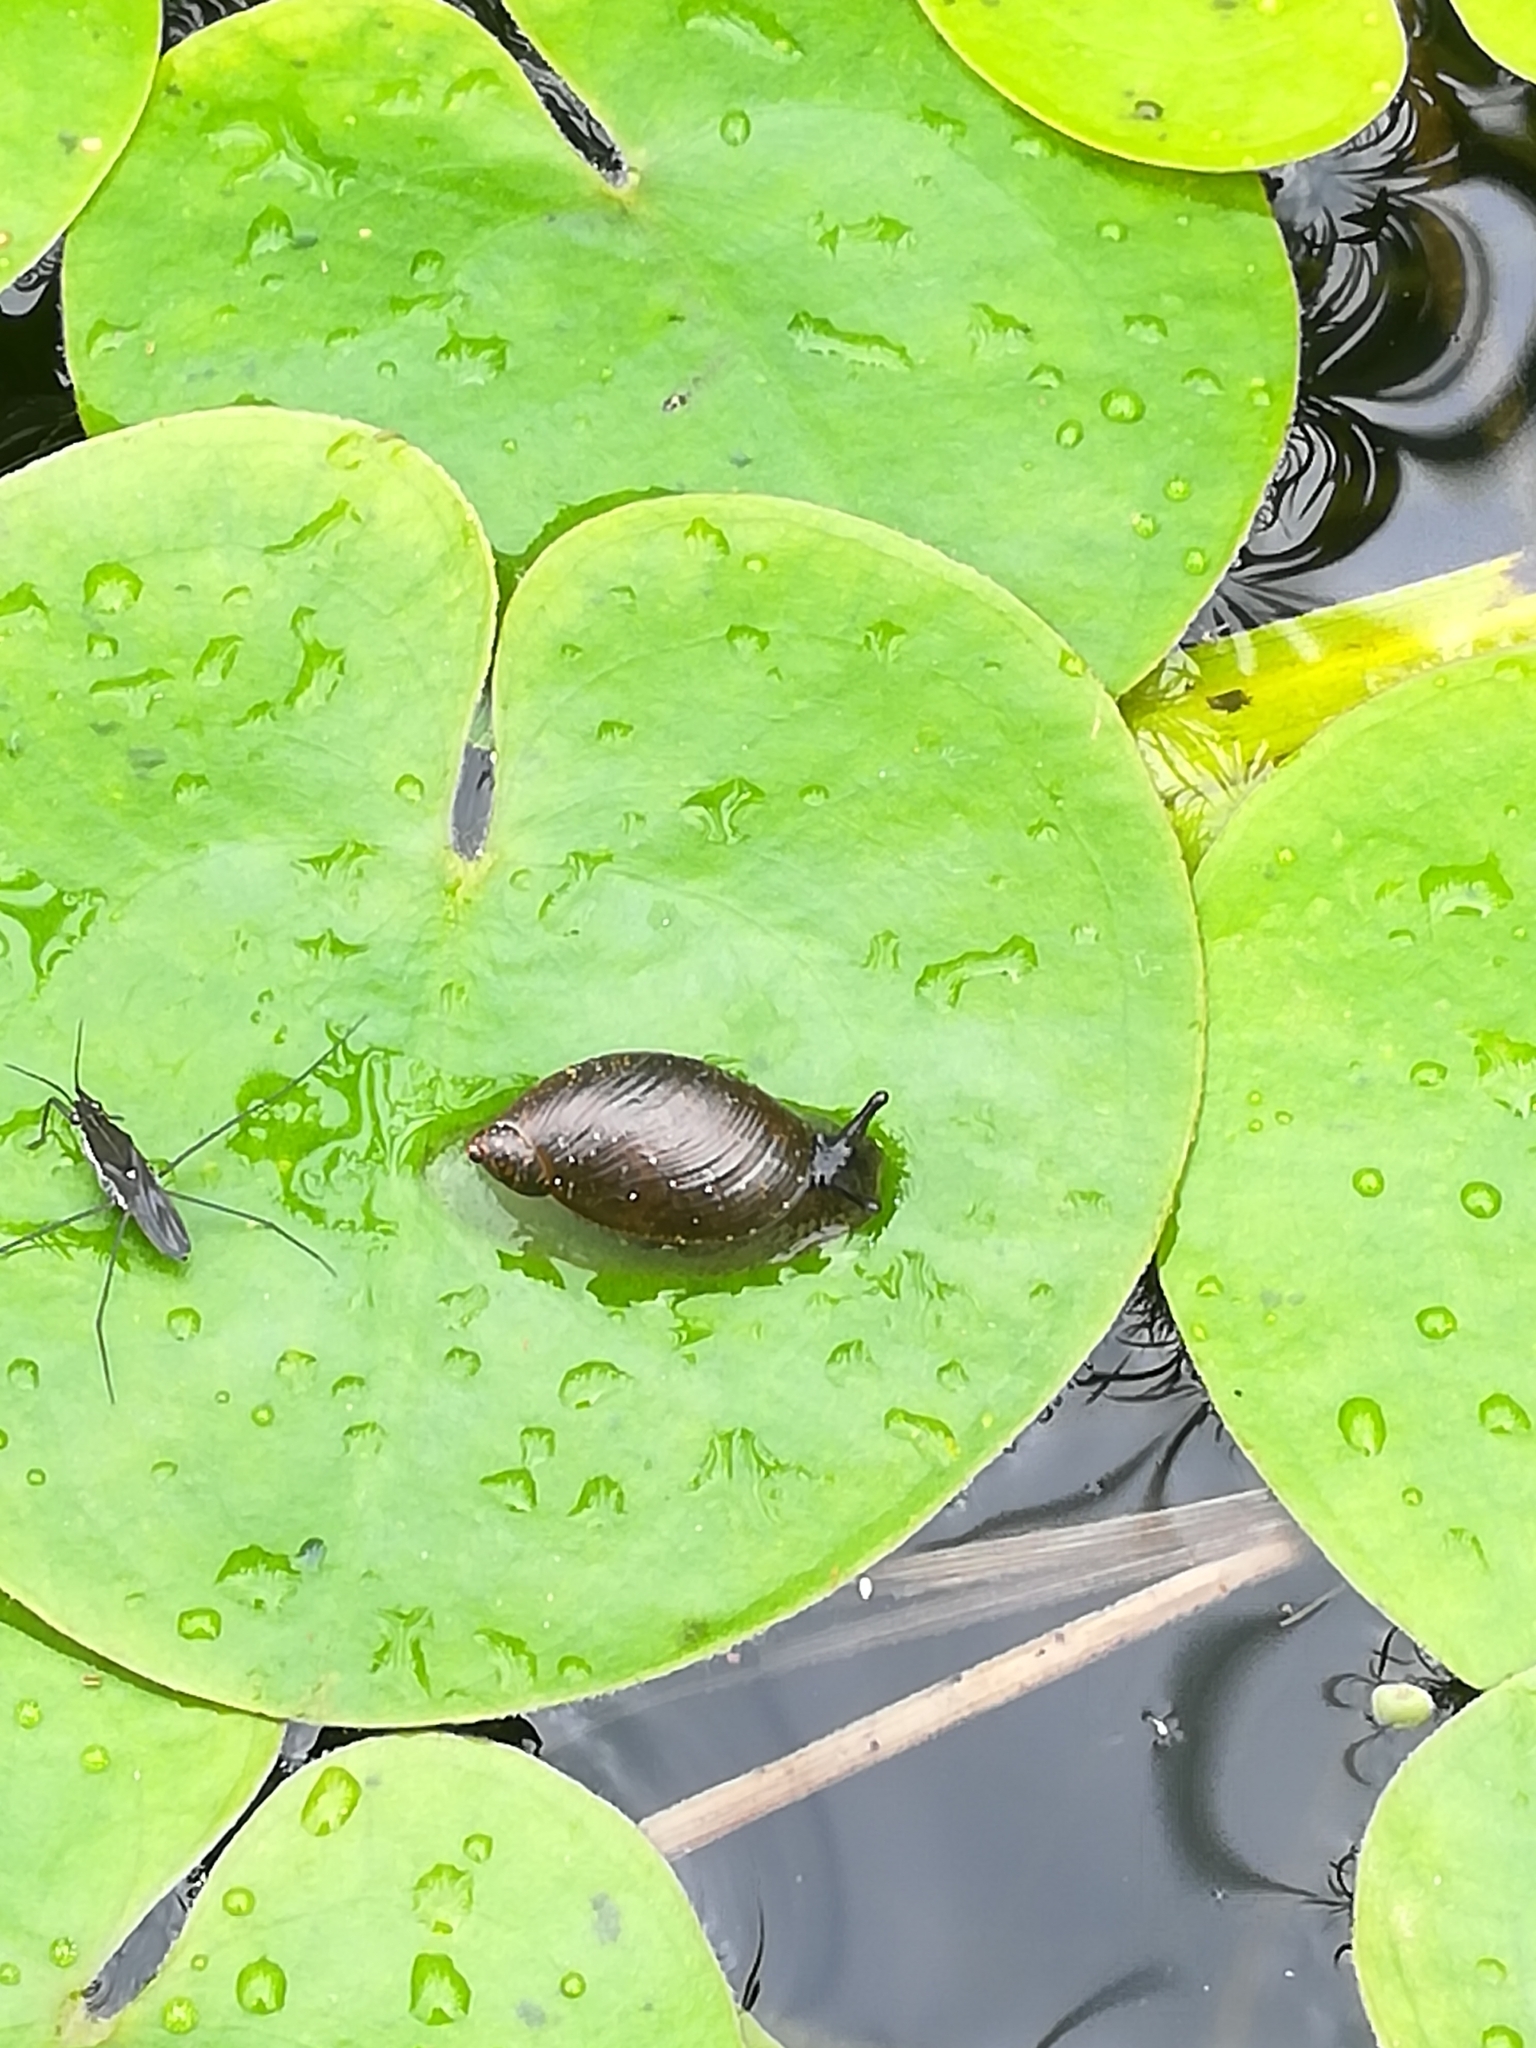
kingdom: Animalia
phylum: Mollusca
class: Gastropoda
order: Stylommatophora
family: Succineidae
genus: Succinea
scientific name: Succinea putris
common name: European ambersnail
